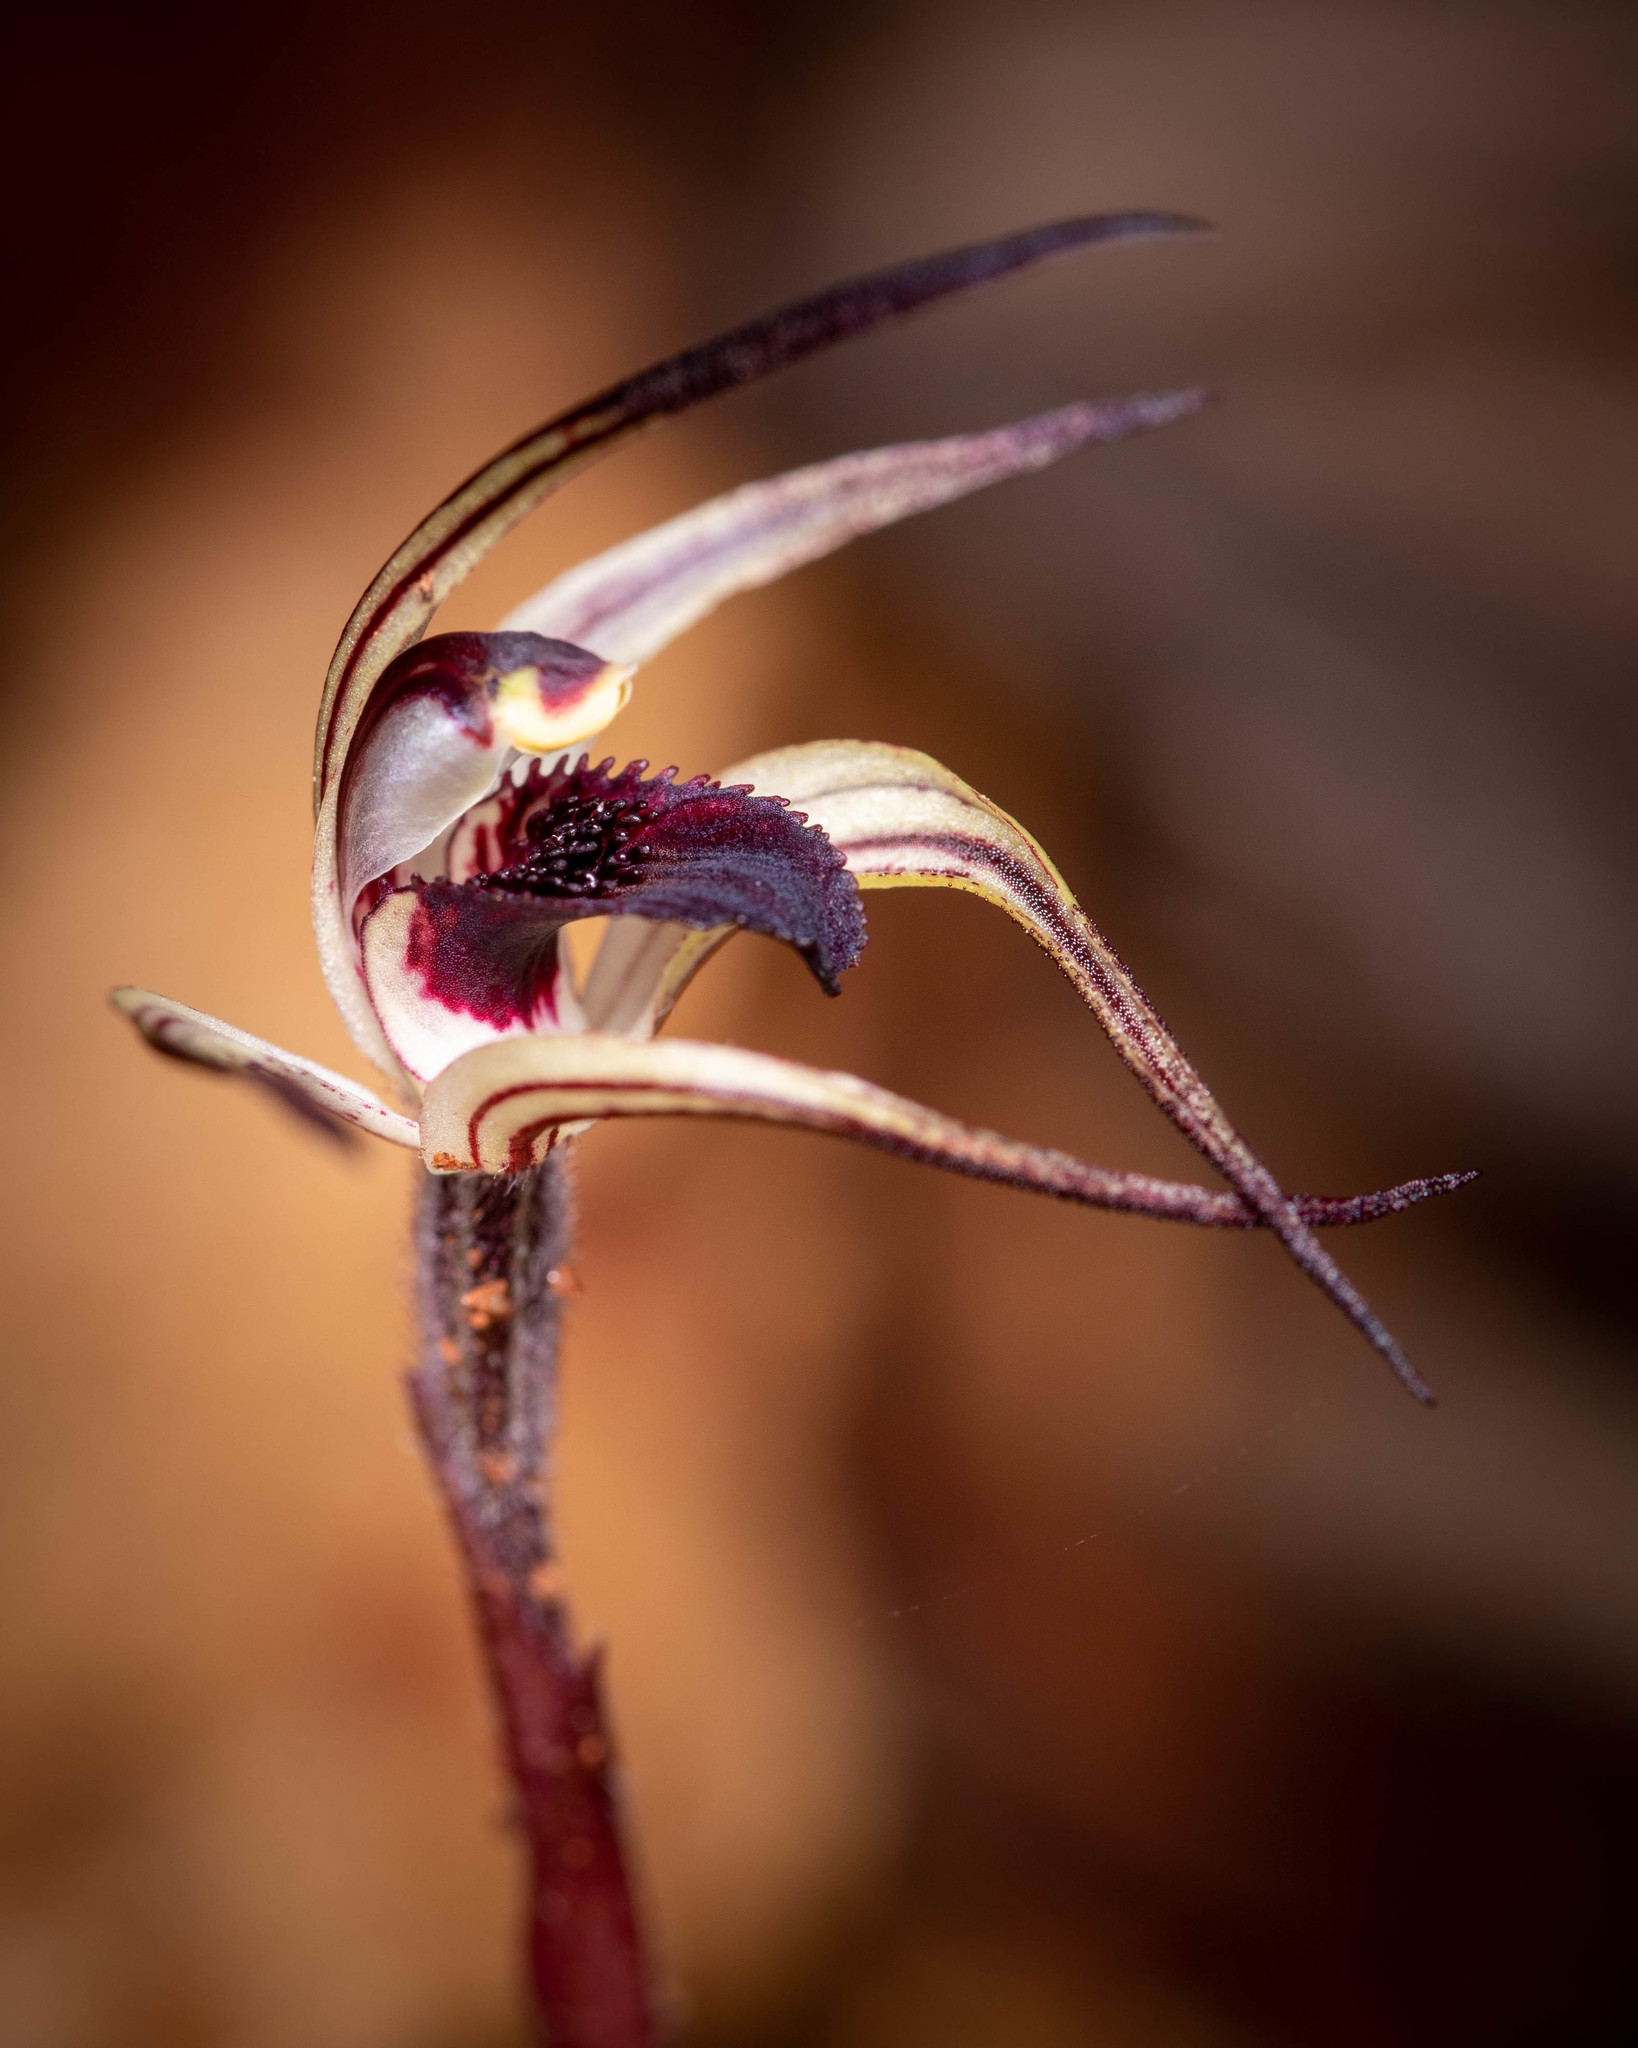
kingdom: Plantae
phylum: Tracheophyta
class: Liliopsida
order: Asparagales
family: Orchidaceae
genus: Caladenia
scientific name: Caladenia drummondii
